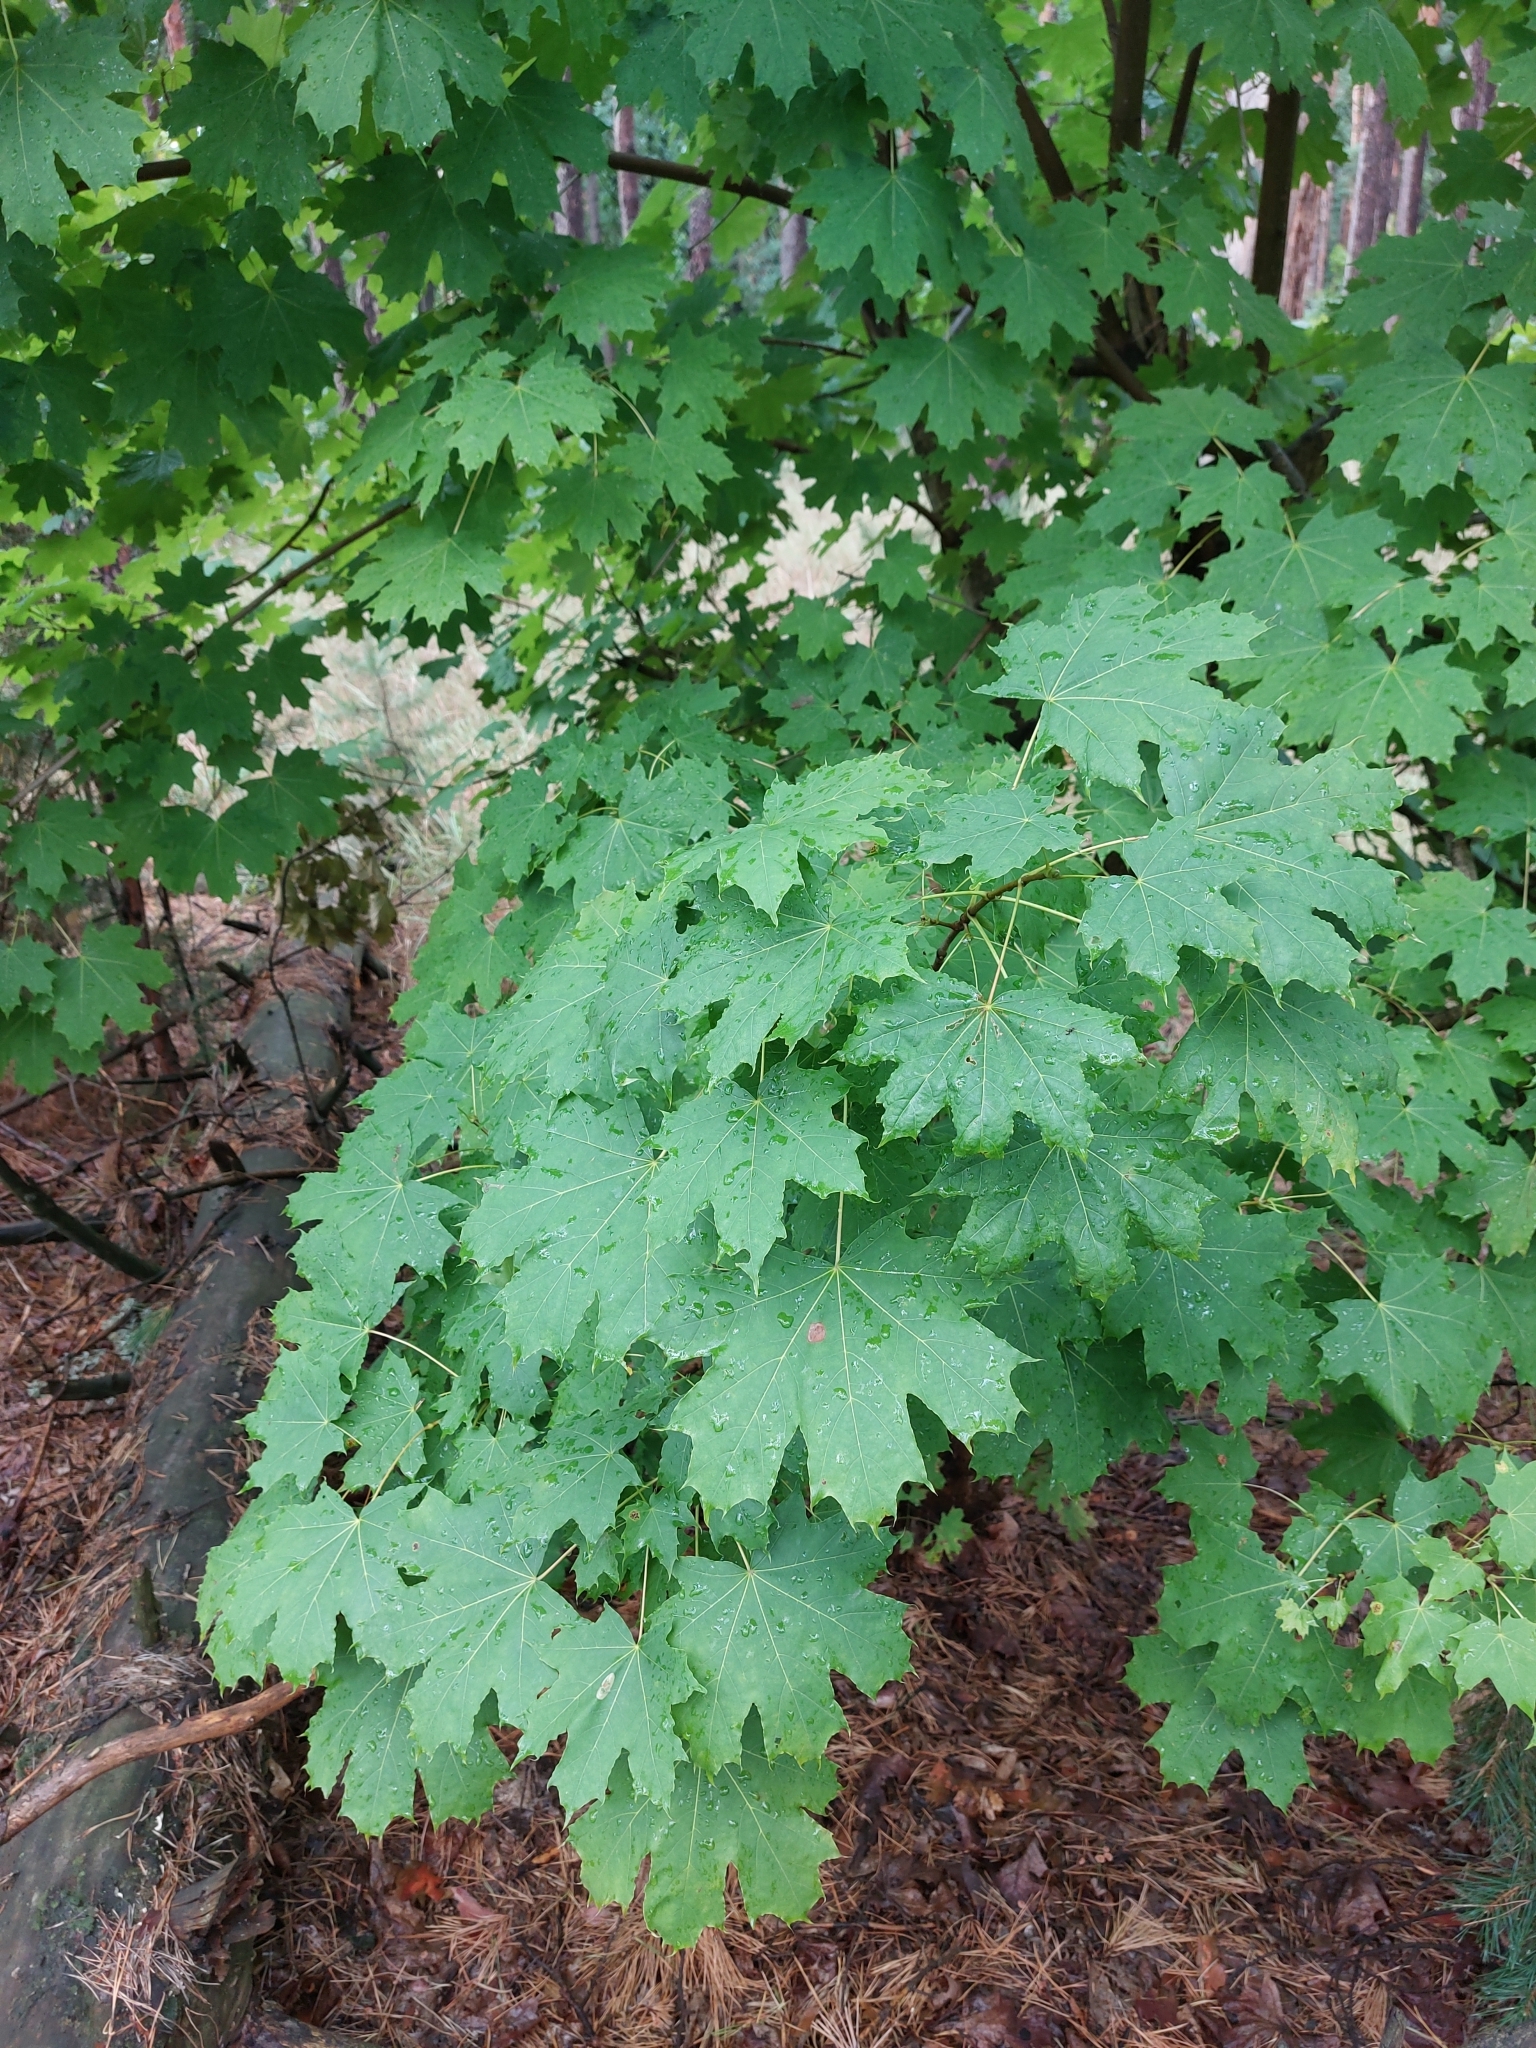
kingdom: Plantae
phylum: Tracheophyta
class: Magnoliopsida
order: Sapindales
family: Sapindaceae
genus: Acer
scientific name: Acer platanoides
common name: Norway maple
